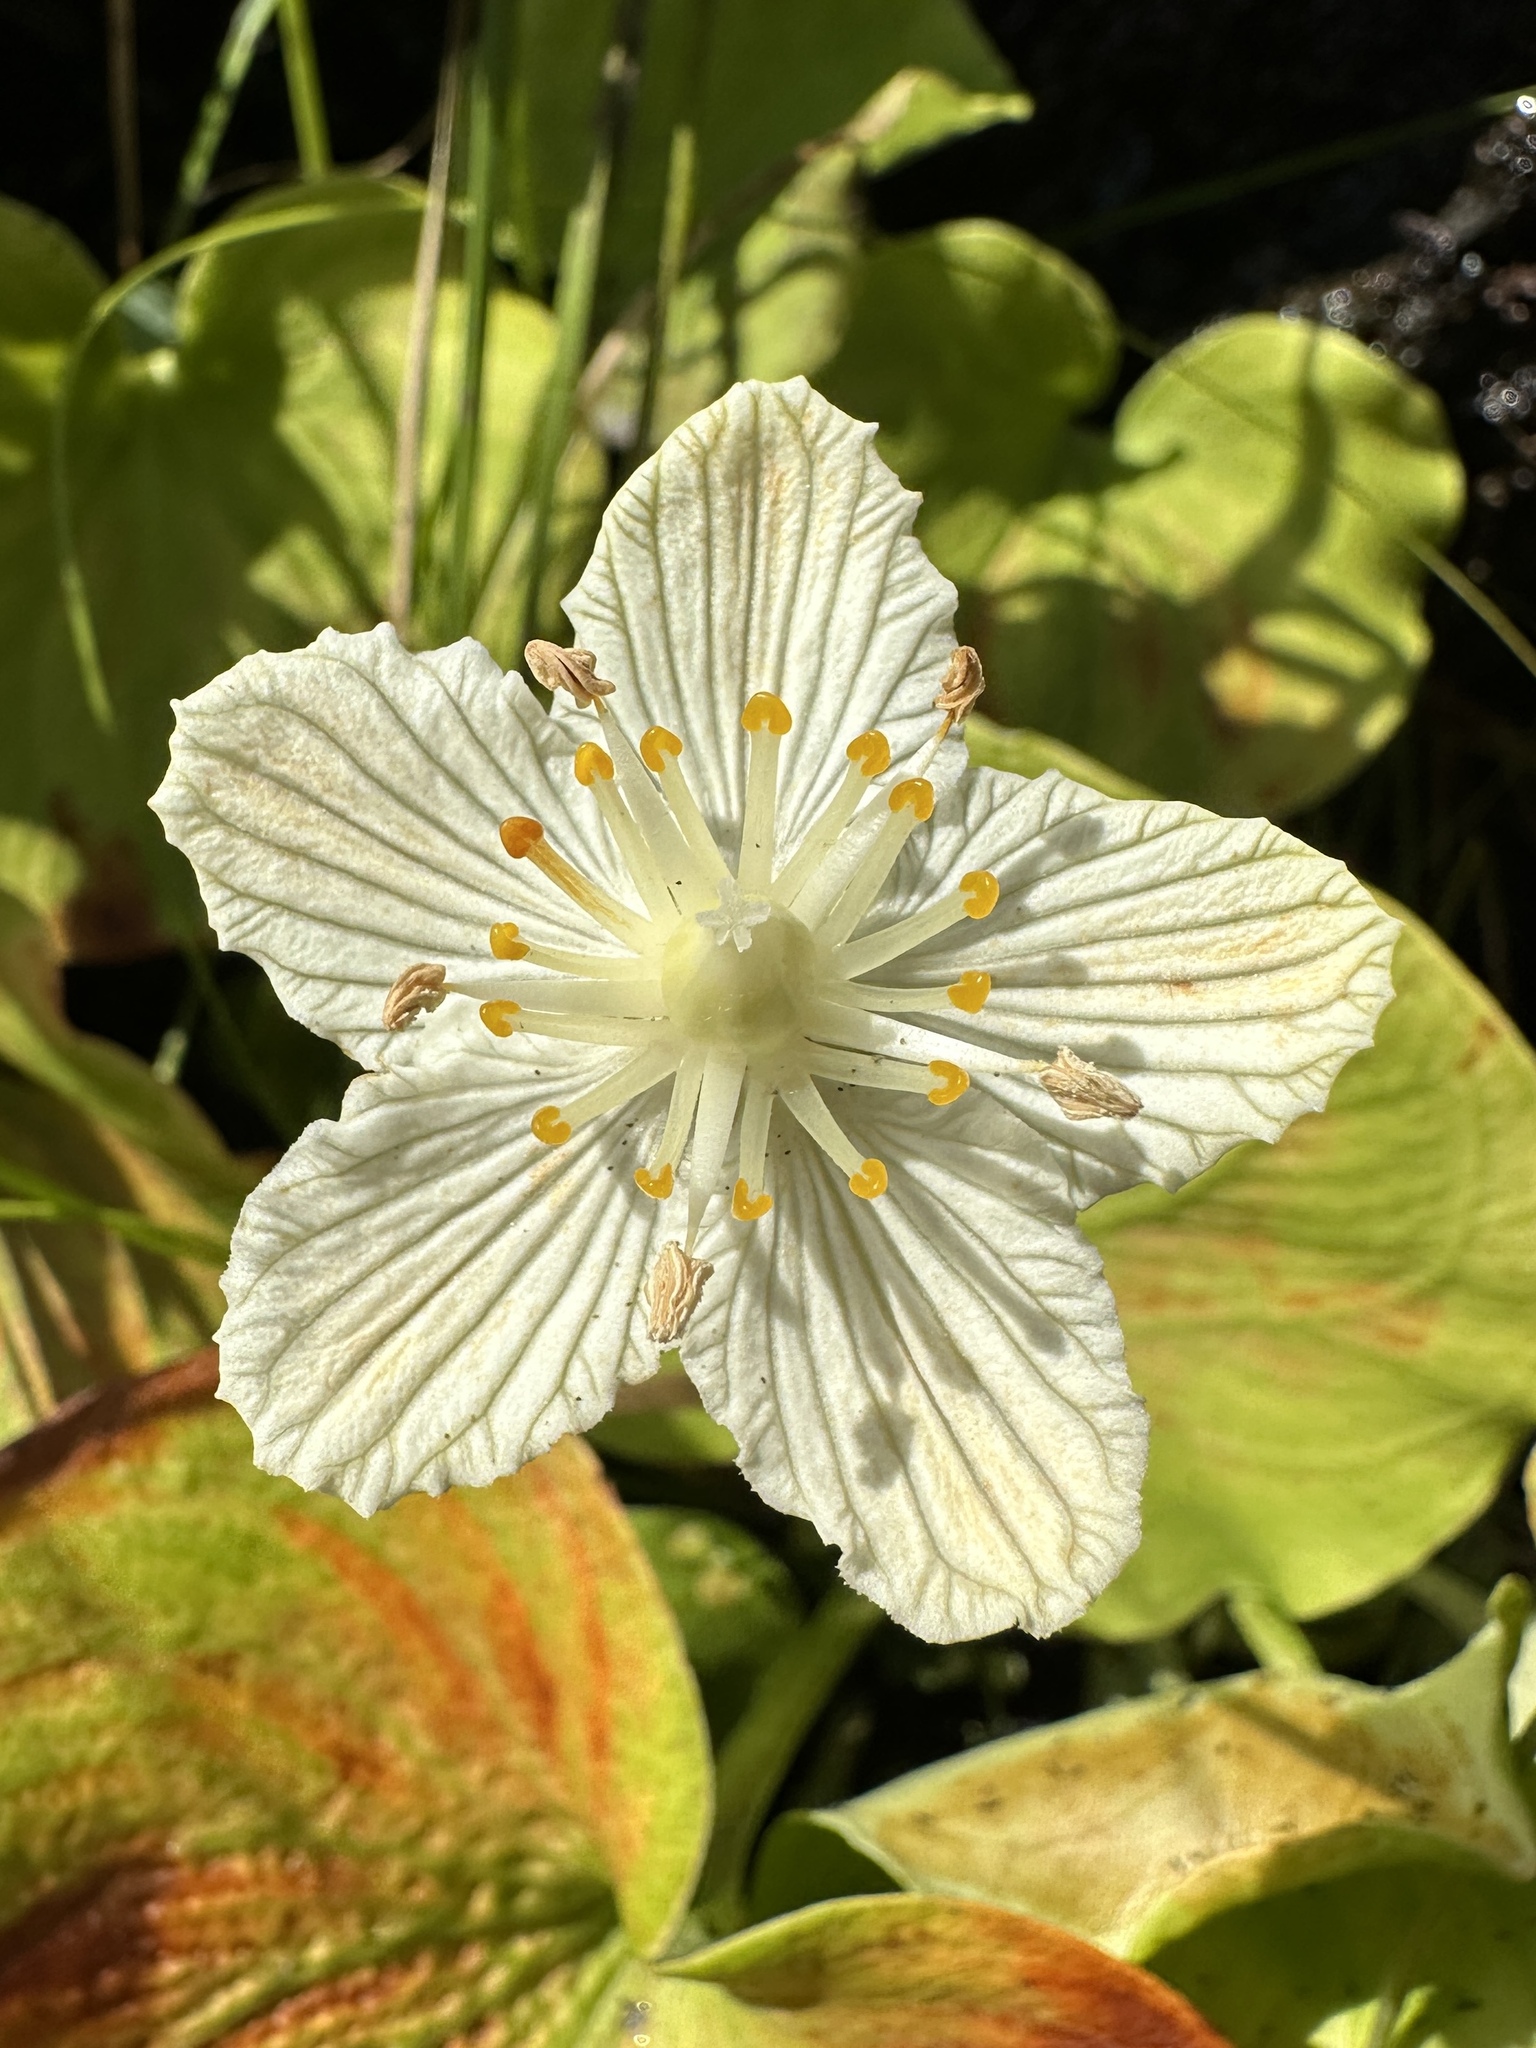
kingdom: Plantae
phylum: Tracheophyta
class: Magnoliopsida
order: Celastrales
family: Parnassiaceae
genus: Parnassia
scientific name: Parnassia asarifolia
